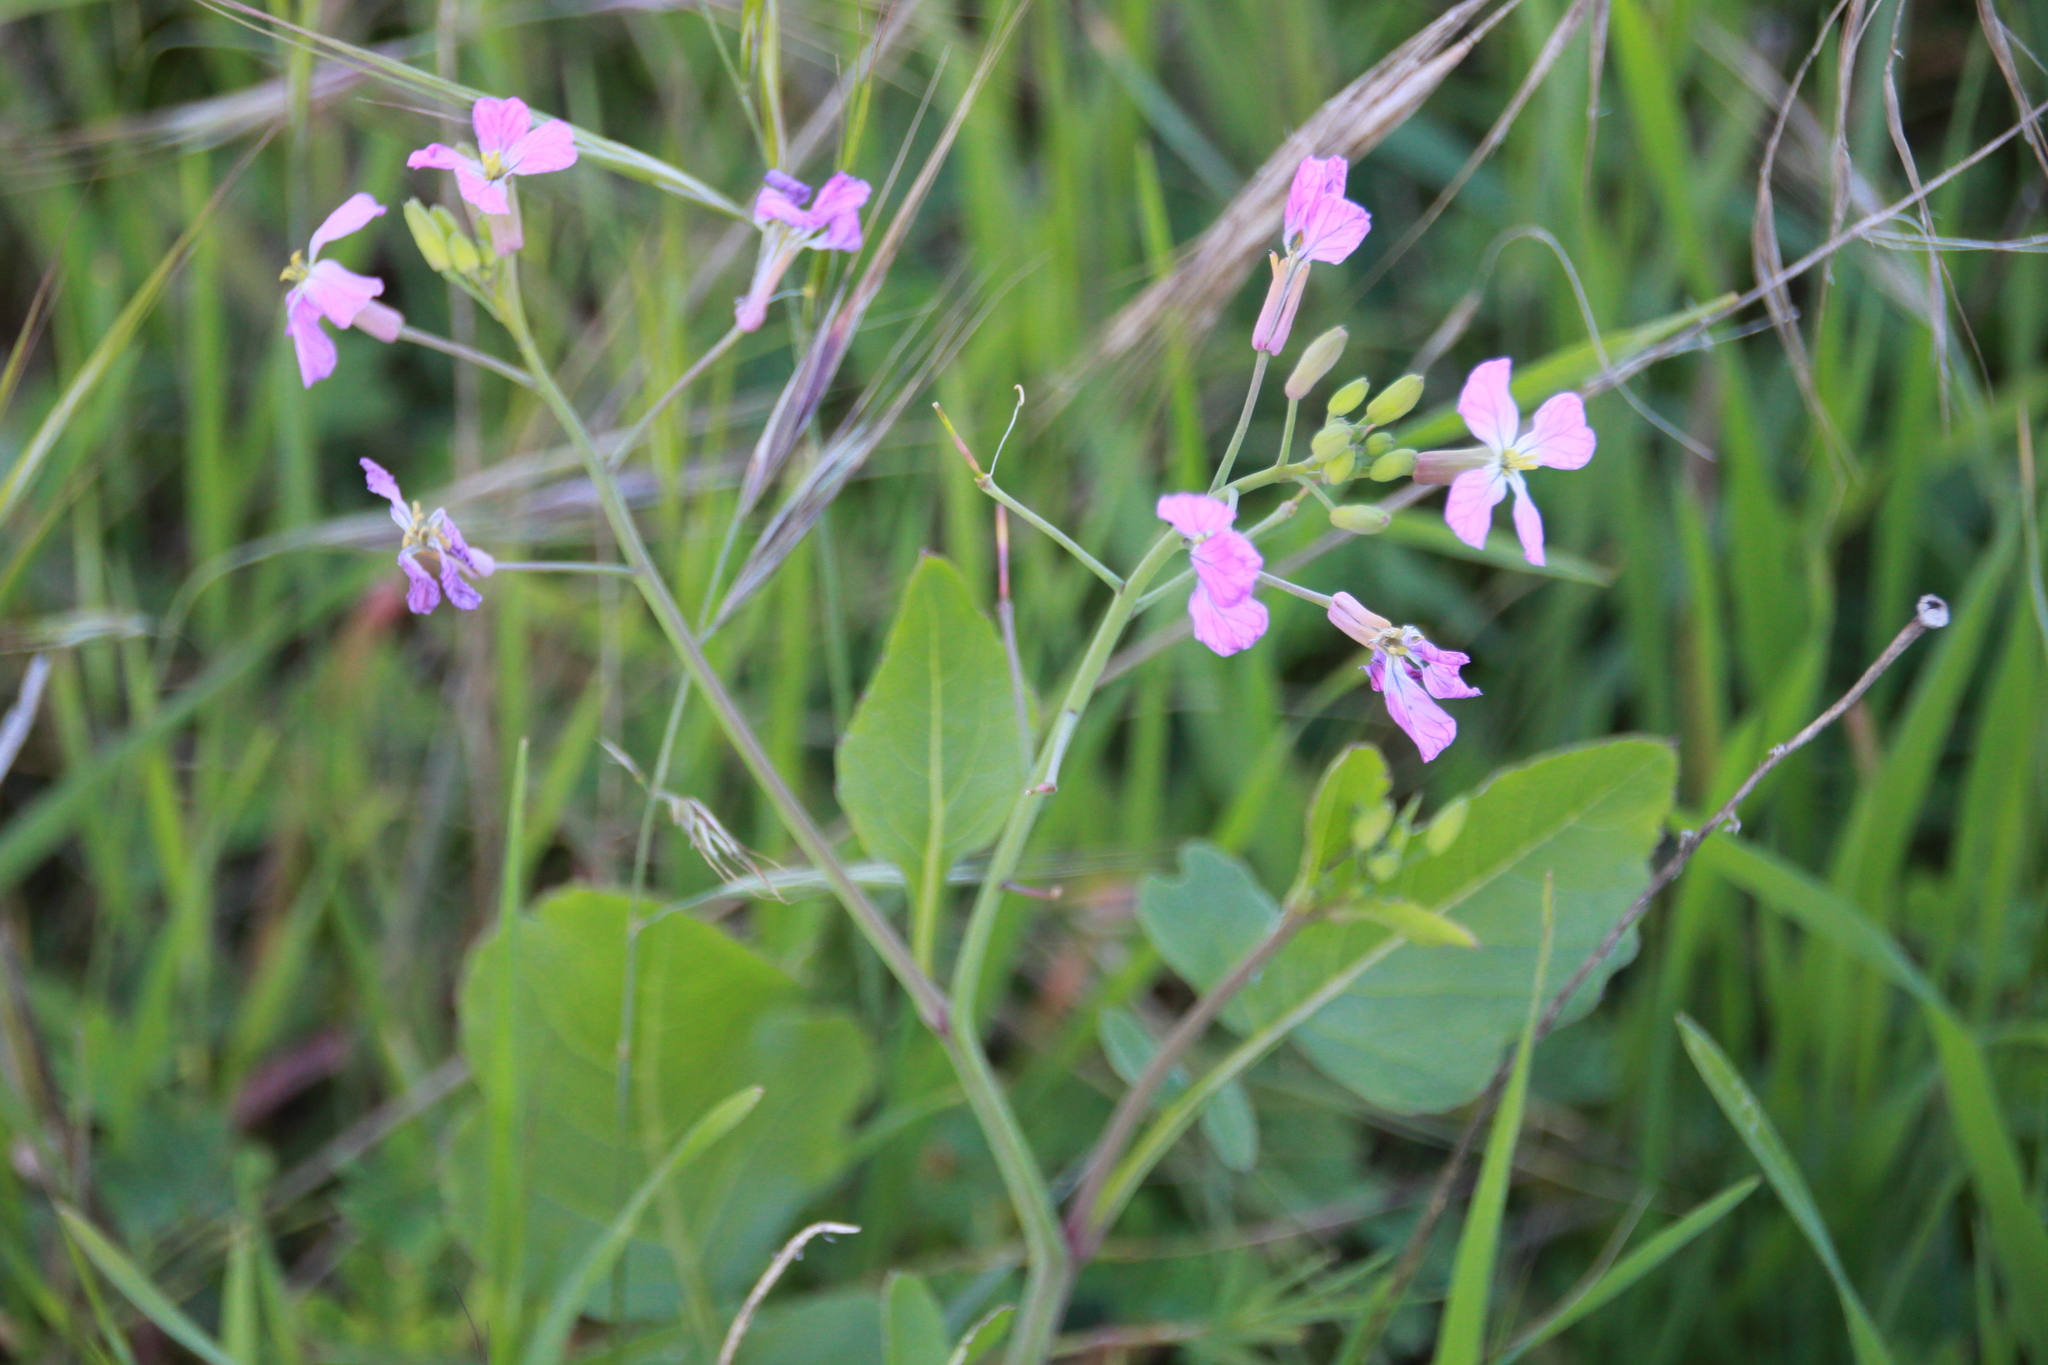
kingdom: Plantae
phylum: Tracheophyta
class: Magnoliopsida
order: Brassicales
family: Brassicaceae
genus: Raphanus
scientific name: Raphanus sativus
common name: Cultivated radish
